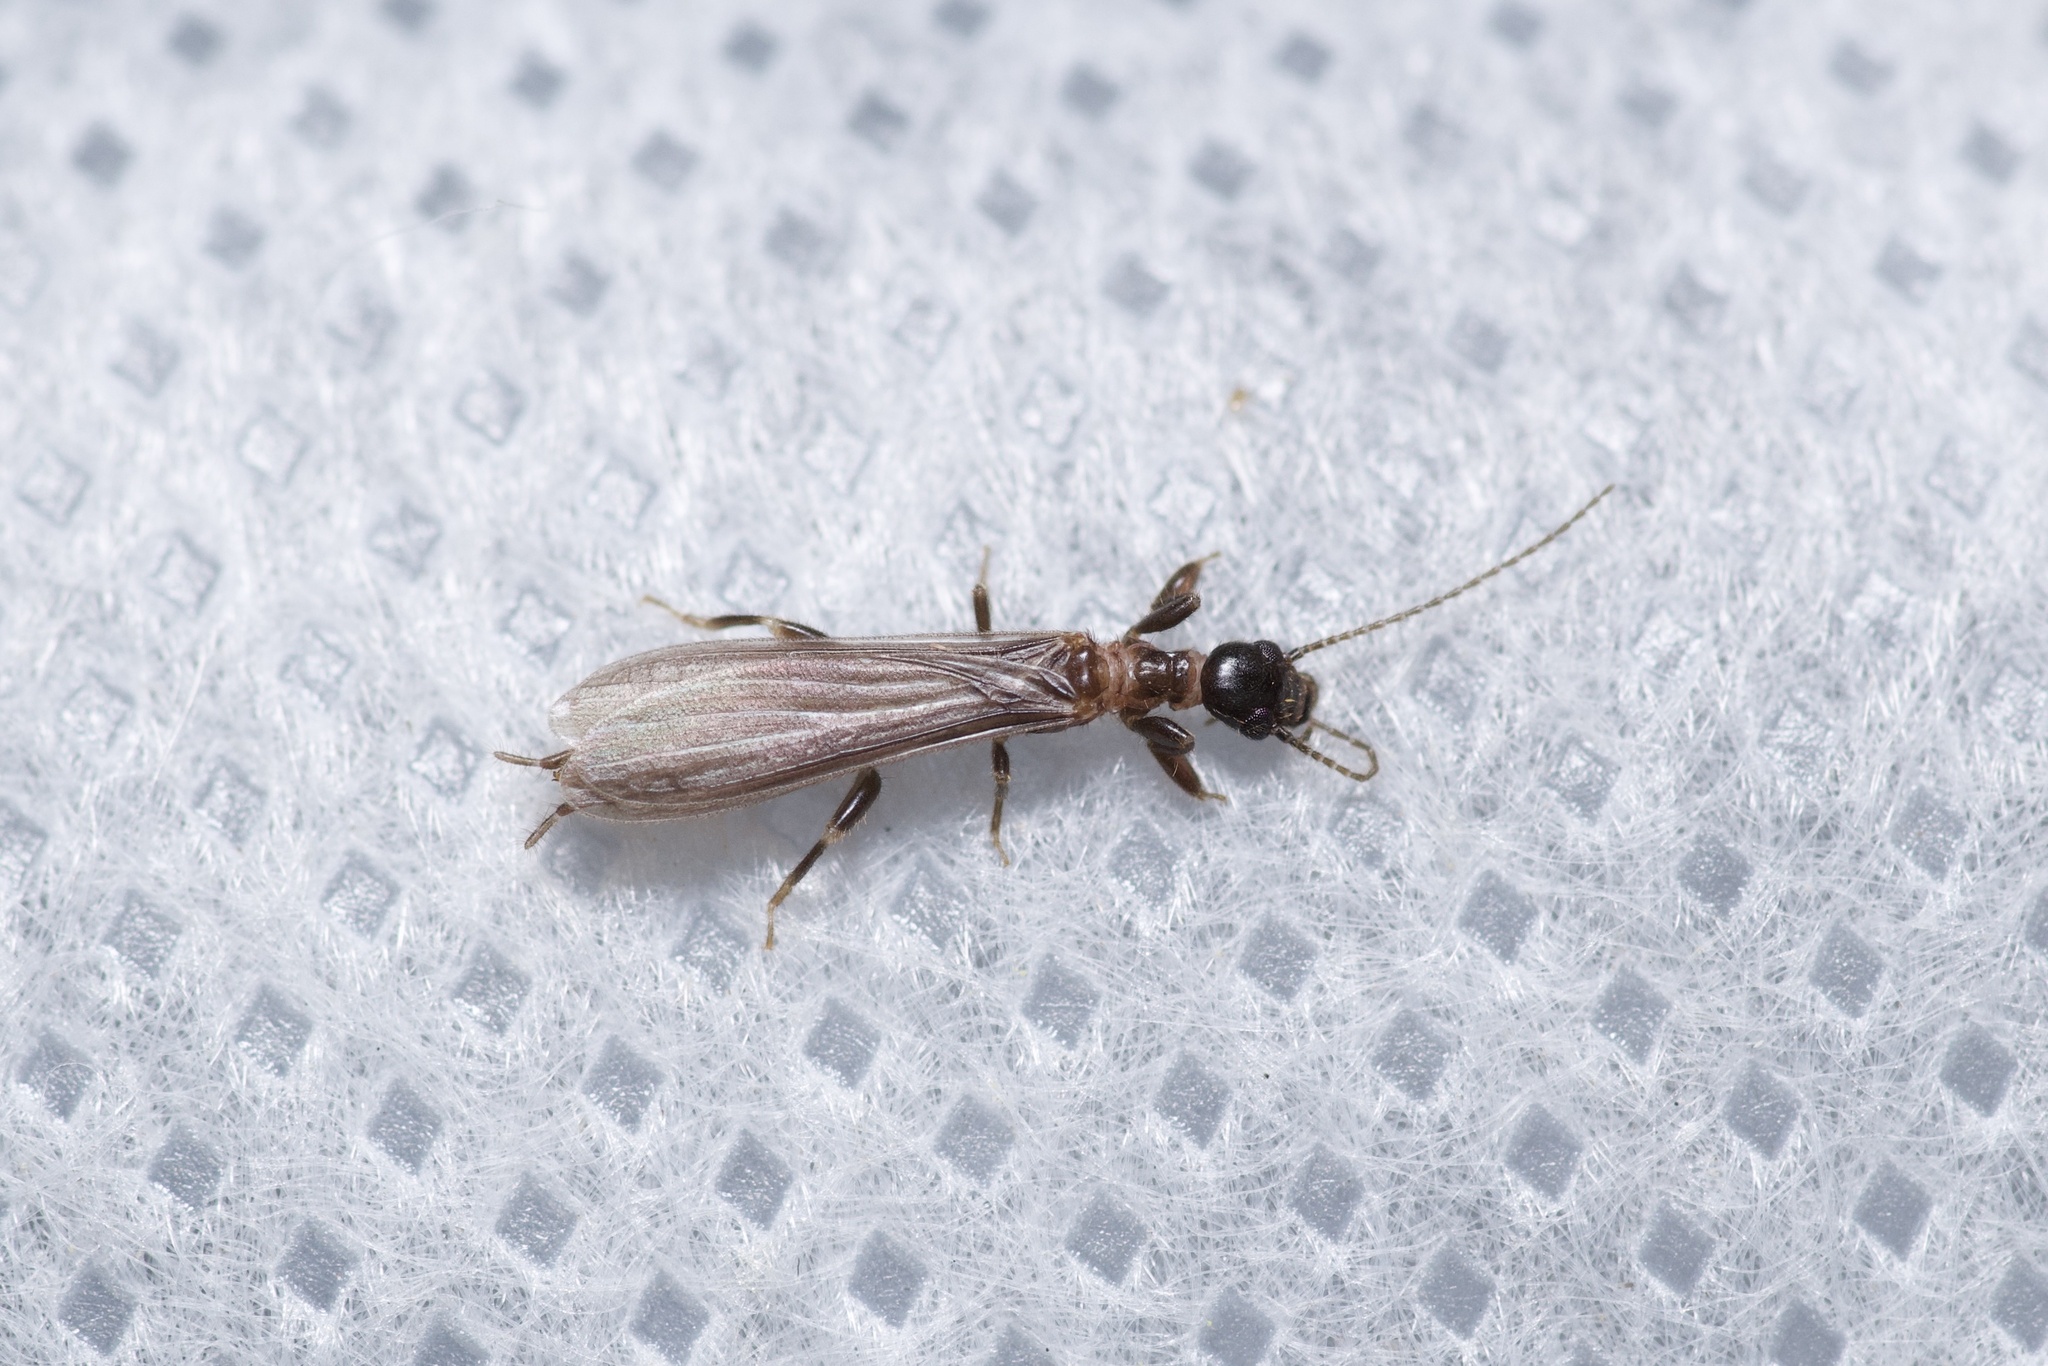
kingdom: Animalia
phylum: Arthropoda
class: Insecta
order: Embioptera
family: Oligotomidae
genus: Oligotoma
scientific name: Oligotoma nigra
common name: Black webspinner
